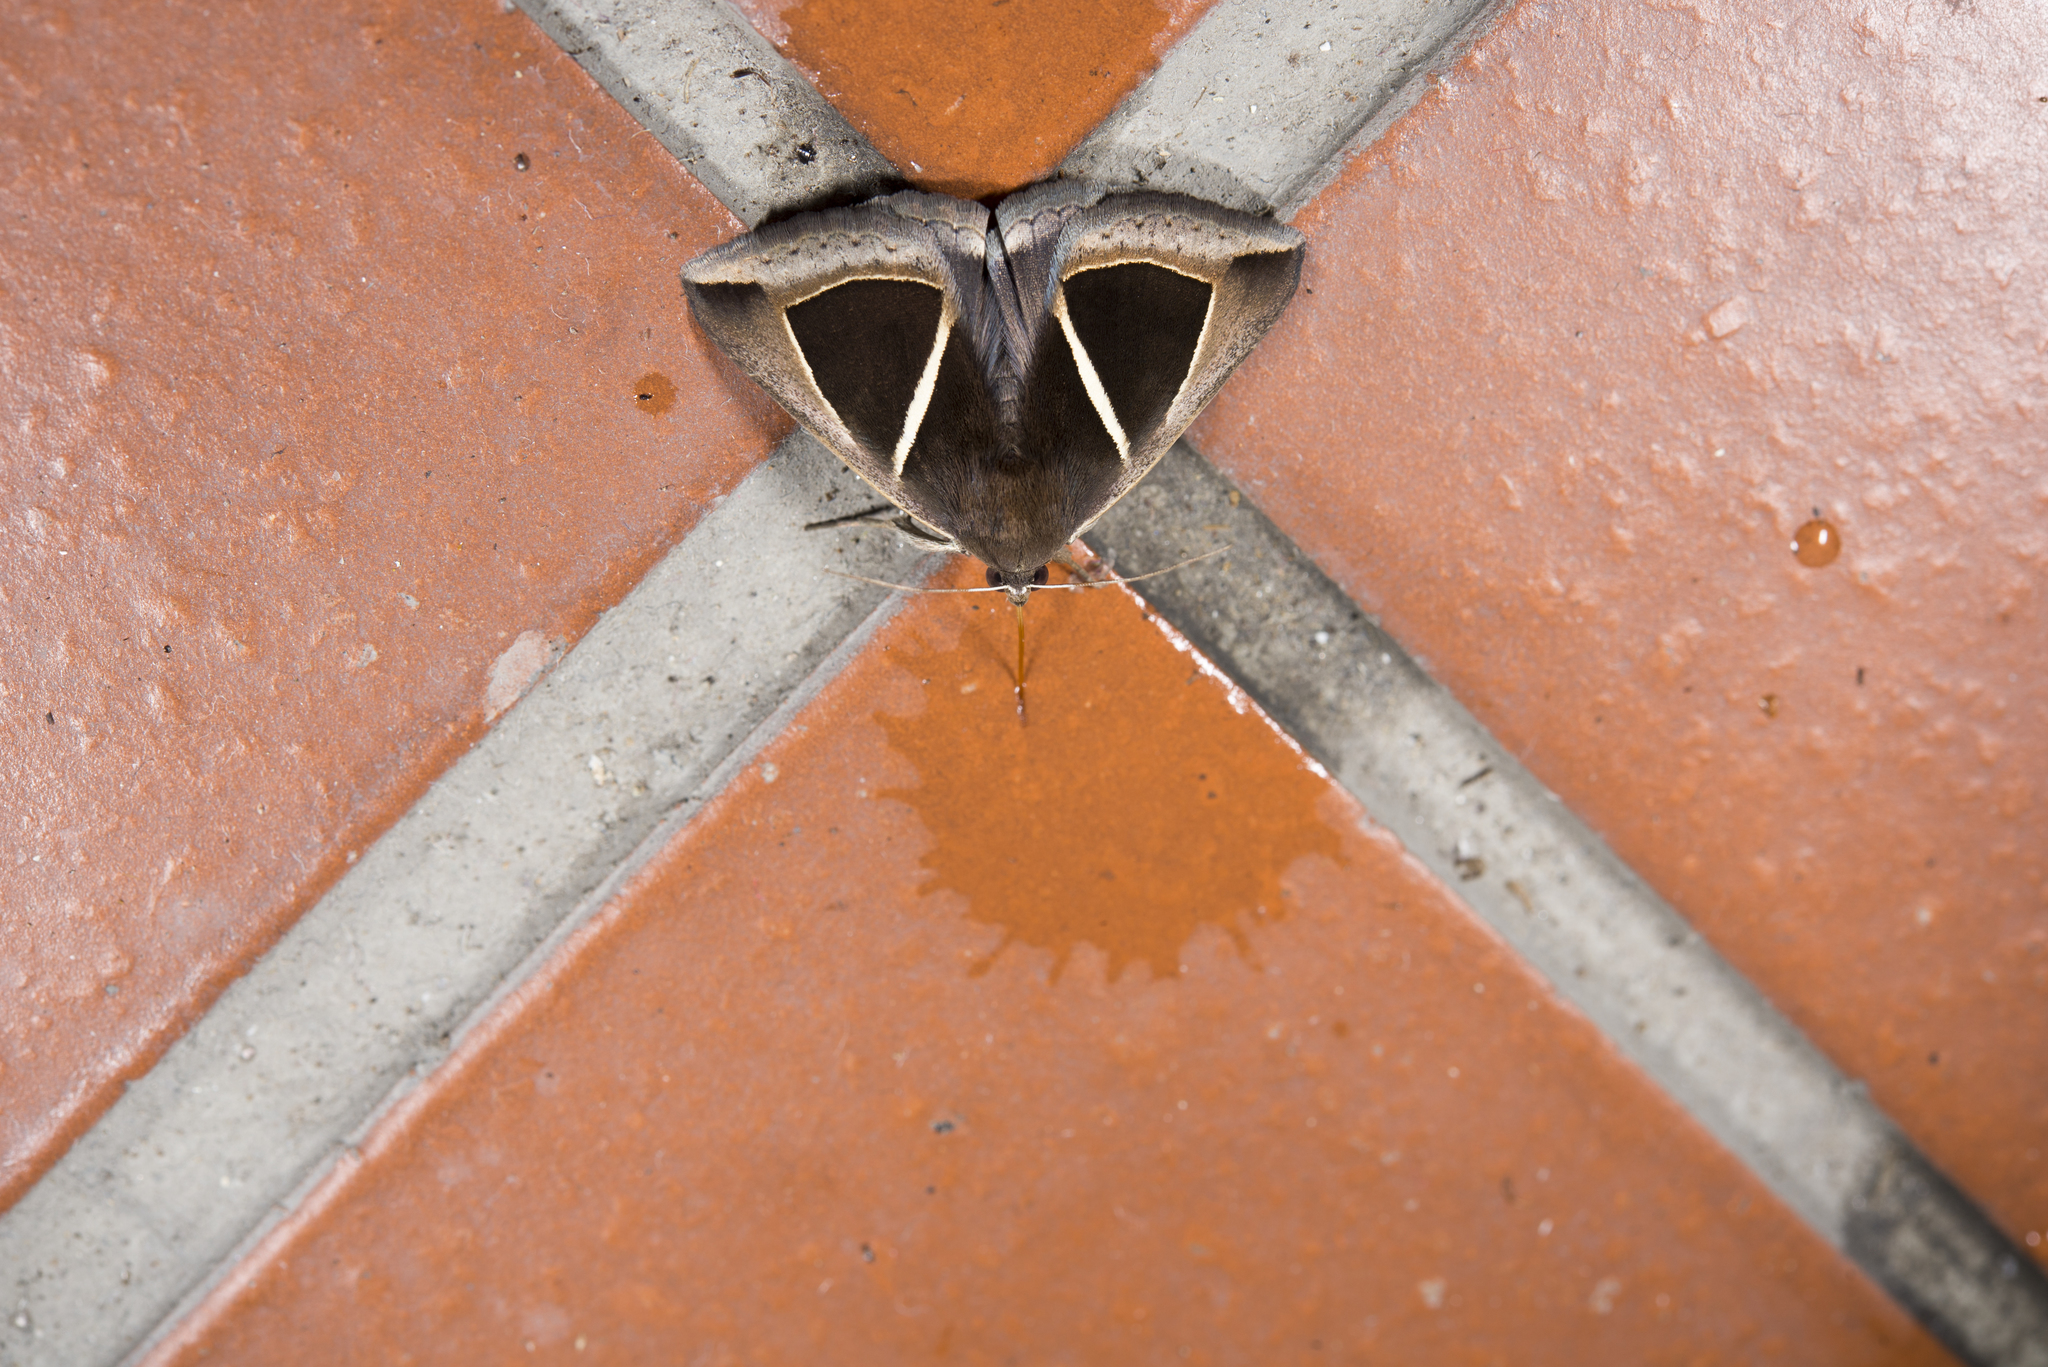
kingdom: Animalia
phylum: Arthropoda
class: Insecta
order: Lepidoptera
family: Erebidae
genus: Chalciope
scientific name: Chalciope mygdon
